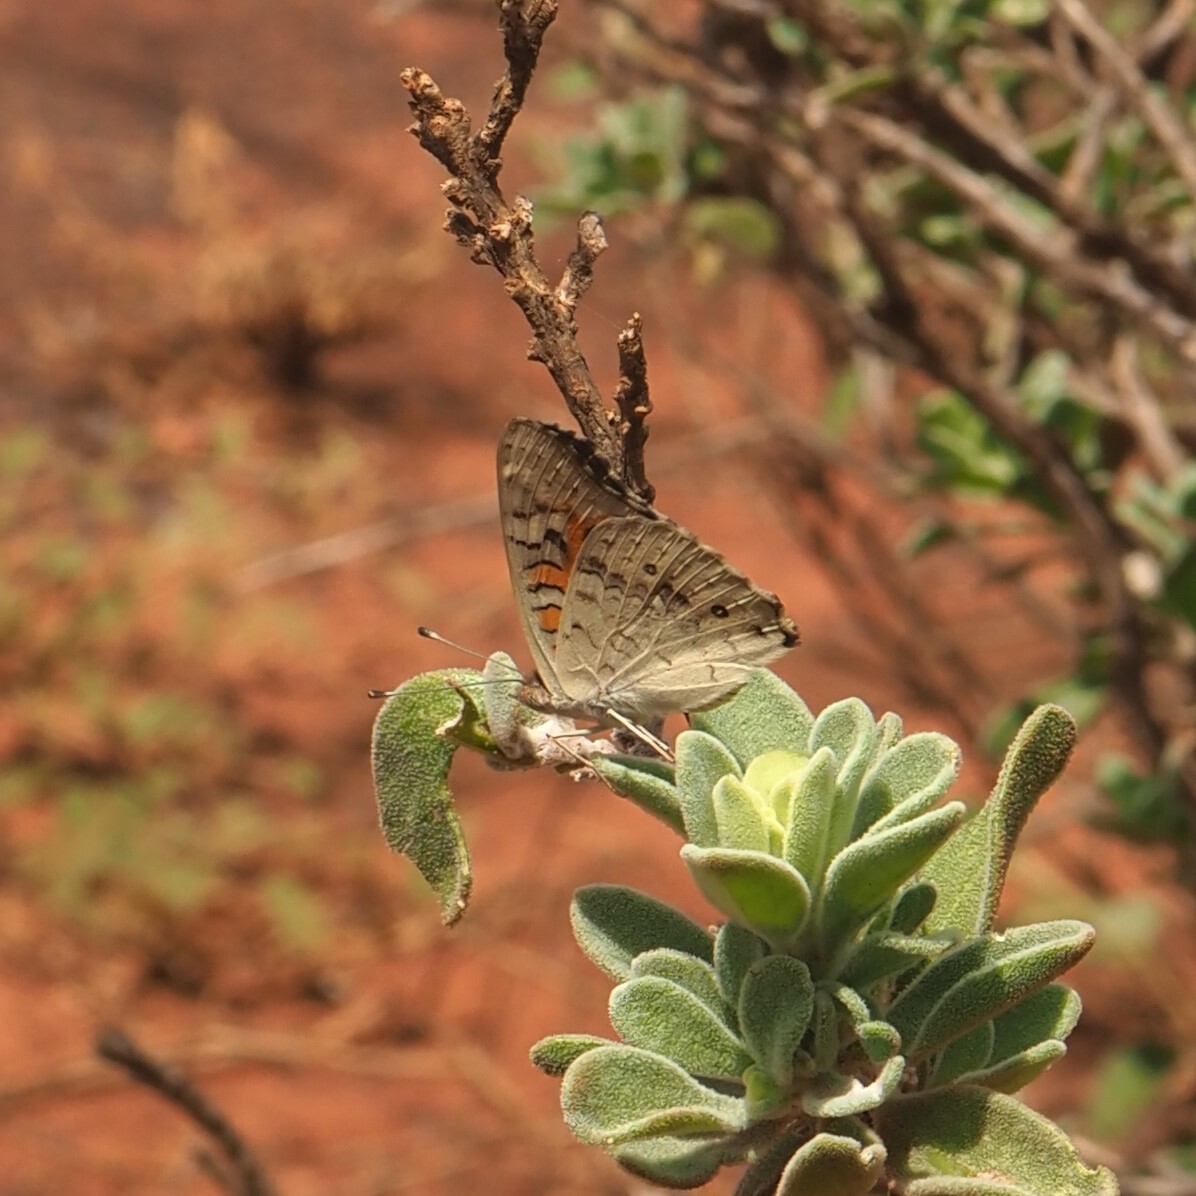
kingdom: Animalia
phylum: Arthropoda
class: Insecta
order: Lepidoptera
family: Nymphalidae
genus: Junonia
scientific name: Junonia villida
